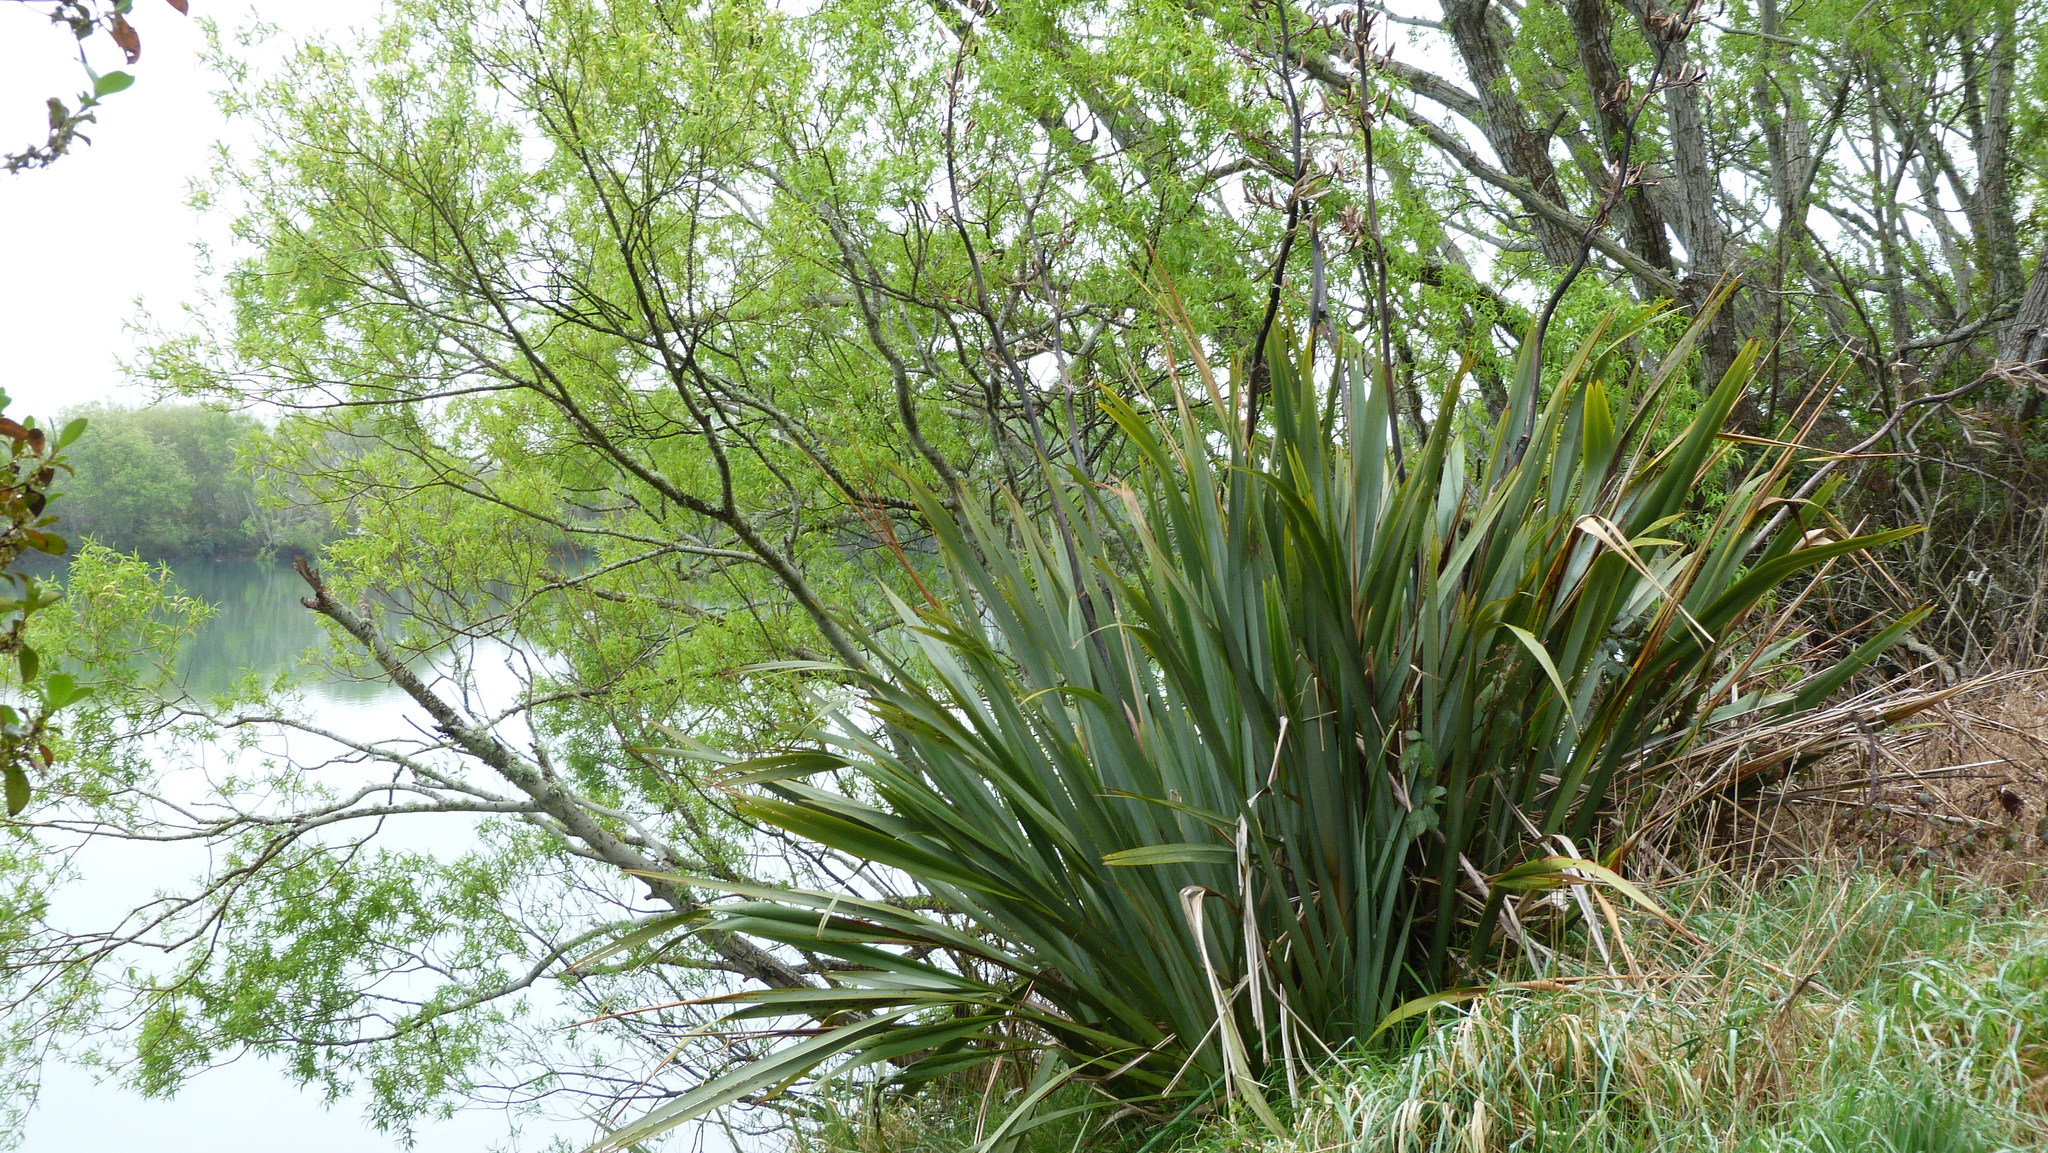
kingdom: Plantae
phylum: Tracheophyta
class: Liliopsida
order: Asparagales
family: Asphodelaceae
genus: Phormium
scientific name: Phormium tenax
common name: New zealand flax
